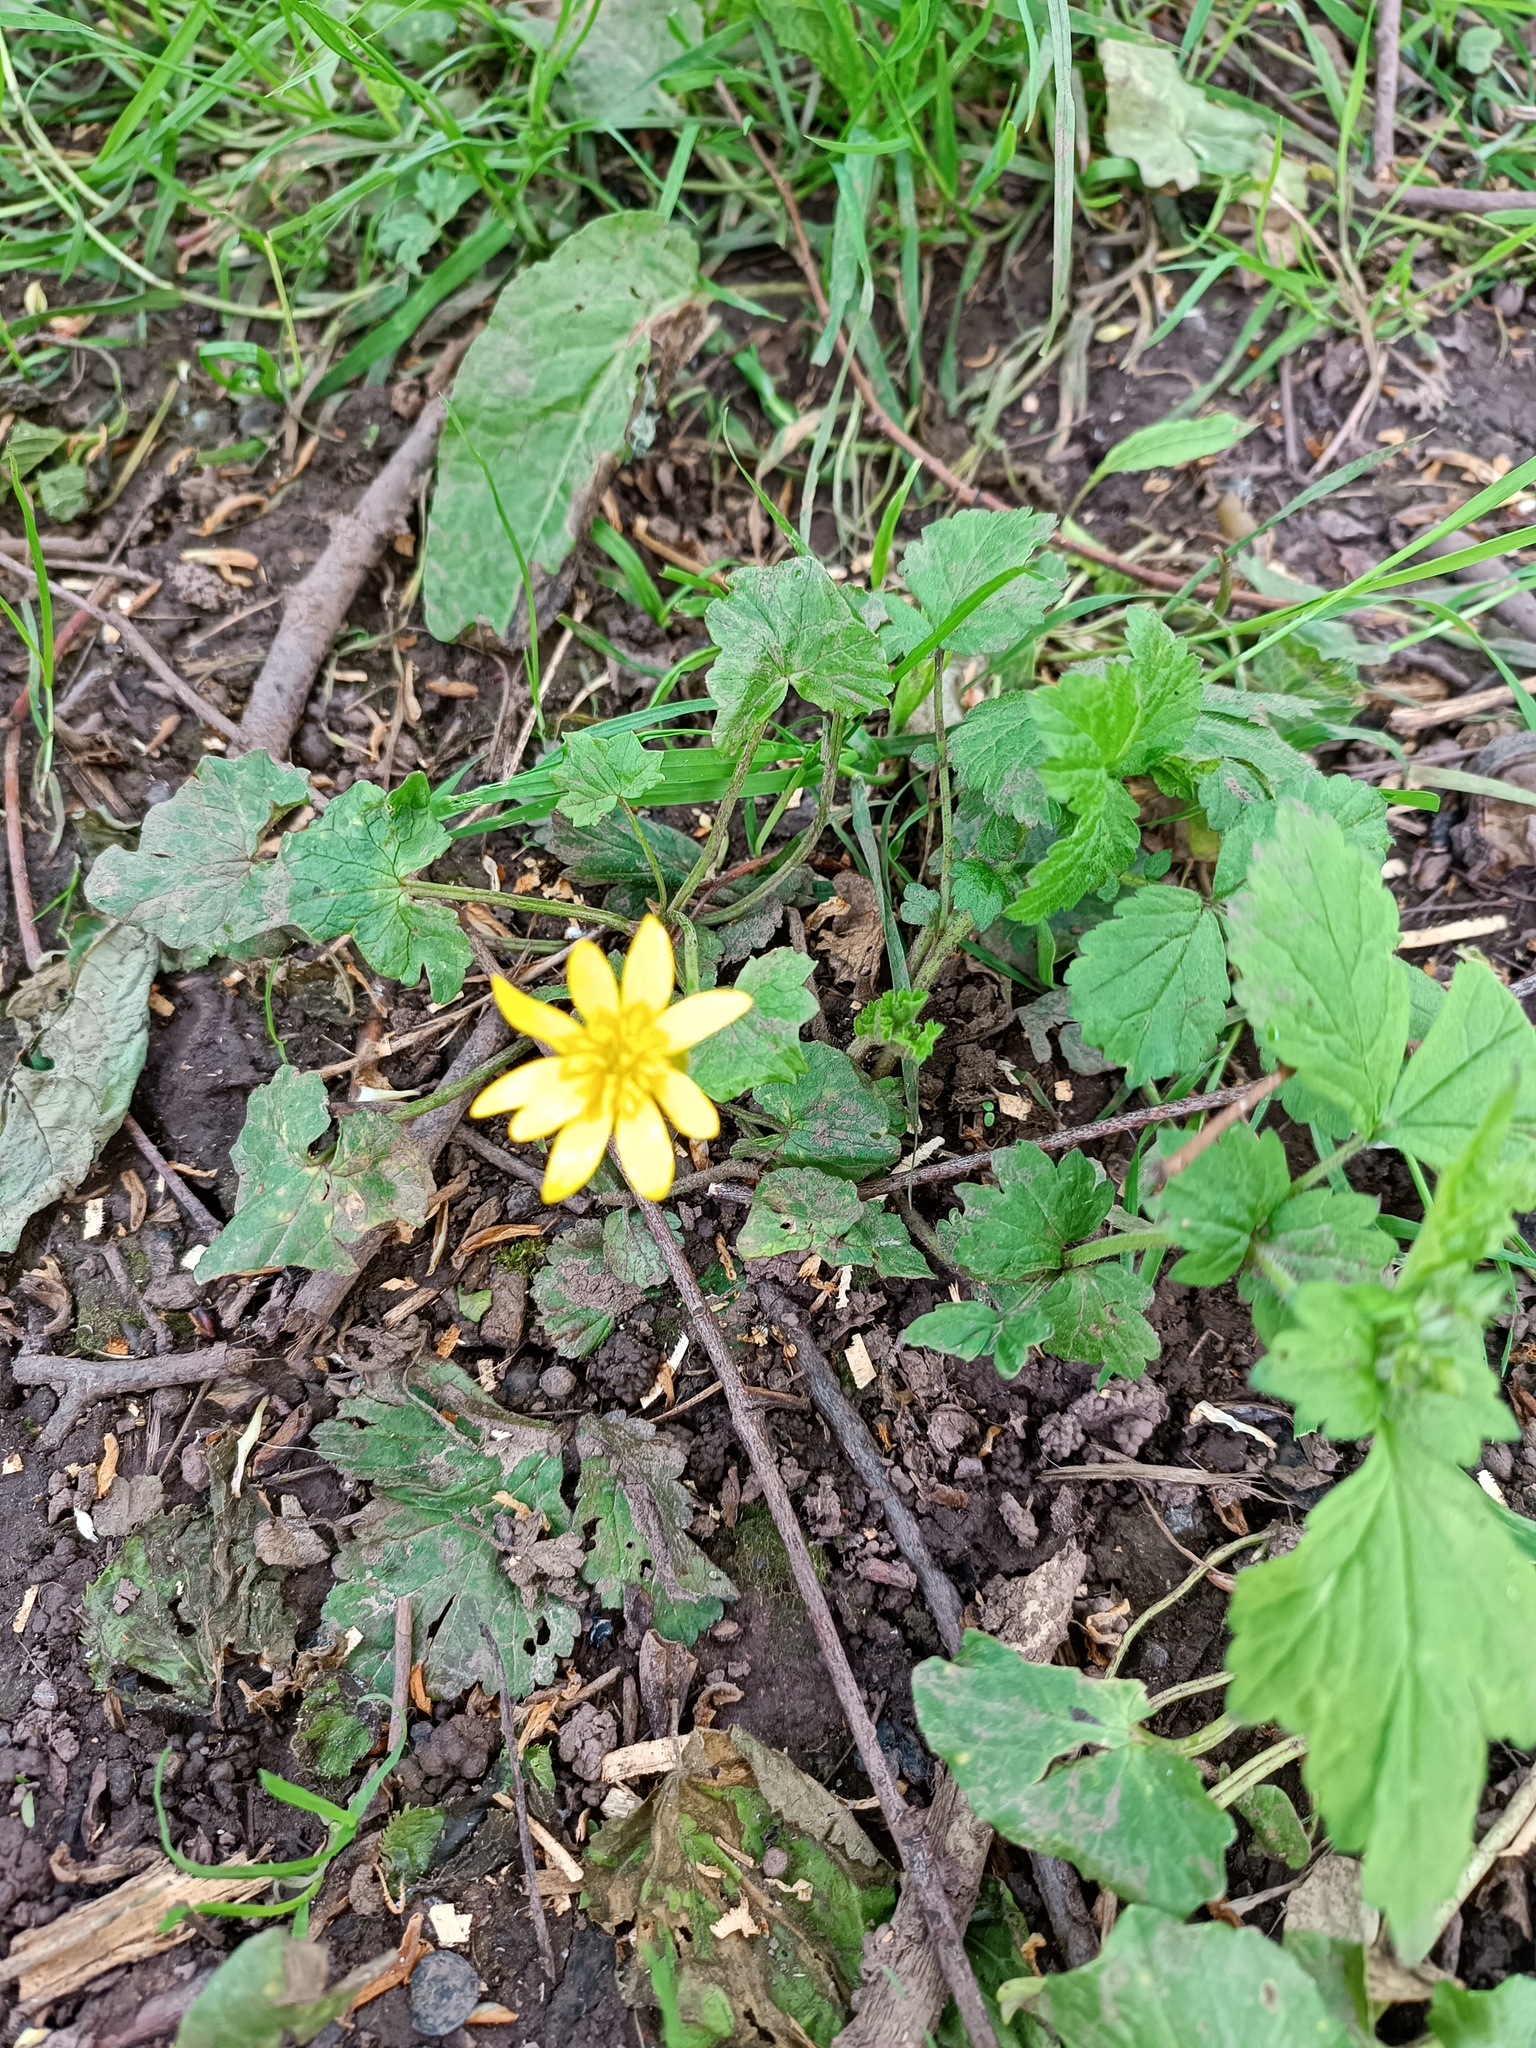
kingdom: Plantae
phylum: Tracheophyta
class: Magnoliopsida
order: Ranunculales
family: Ranunculaceae
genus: Ficaria
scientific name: Ficaria verna
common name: Lesser celandine
